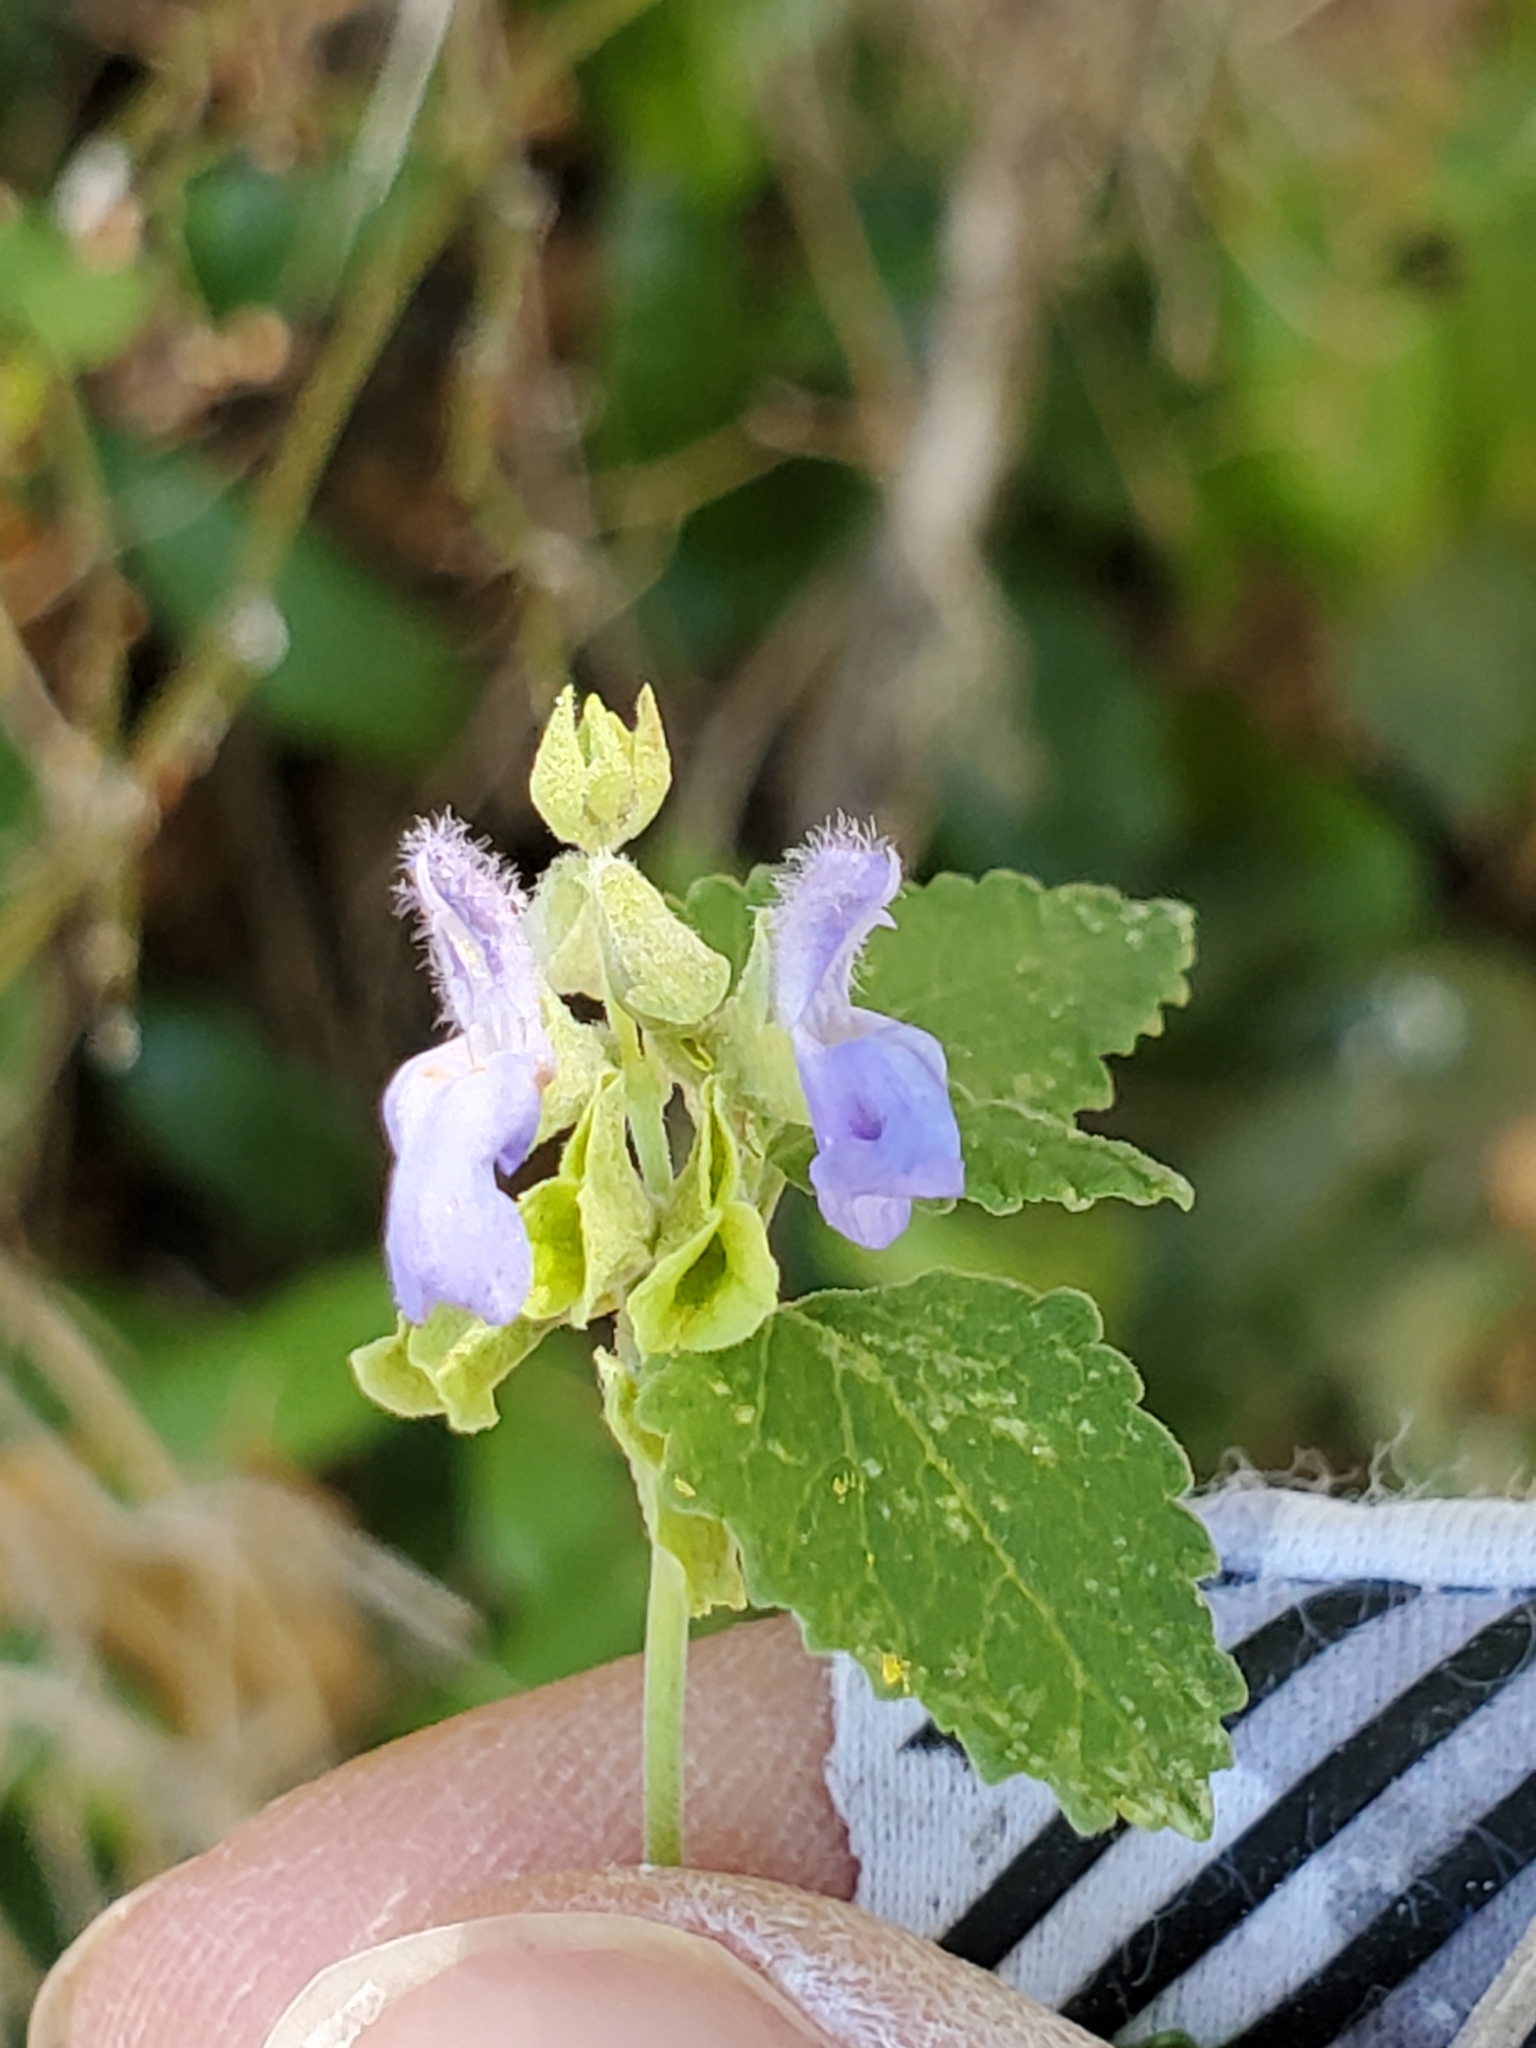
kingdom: Plantae
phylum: Tracheophyta
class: Magnoliopsida
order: Lamiales
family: Lamiaceae
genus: Salvia
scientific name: Salvia ballotiflora
